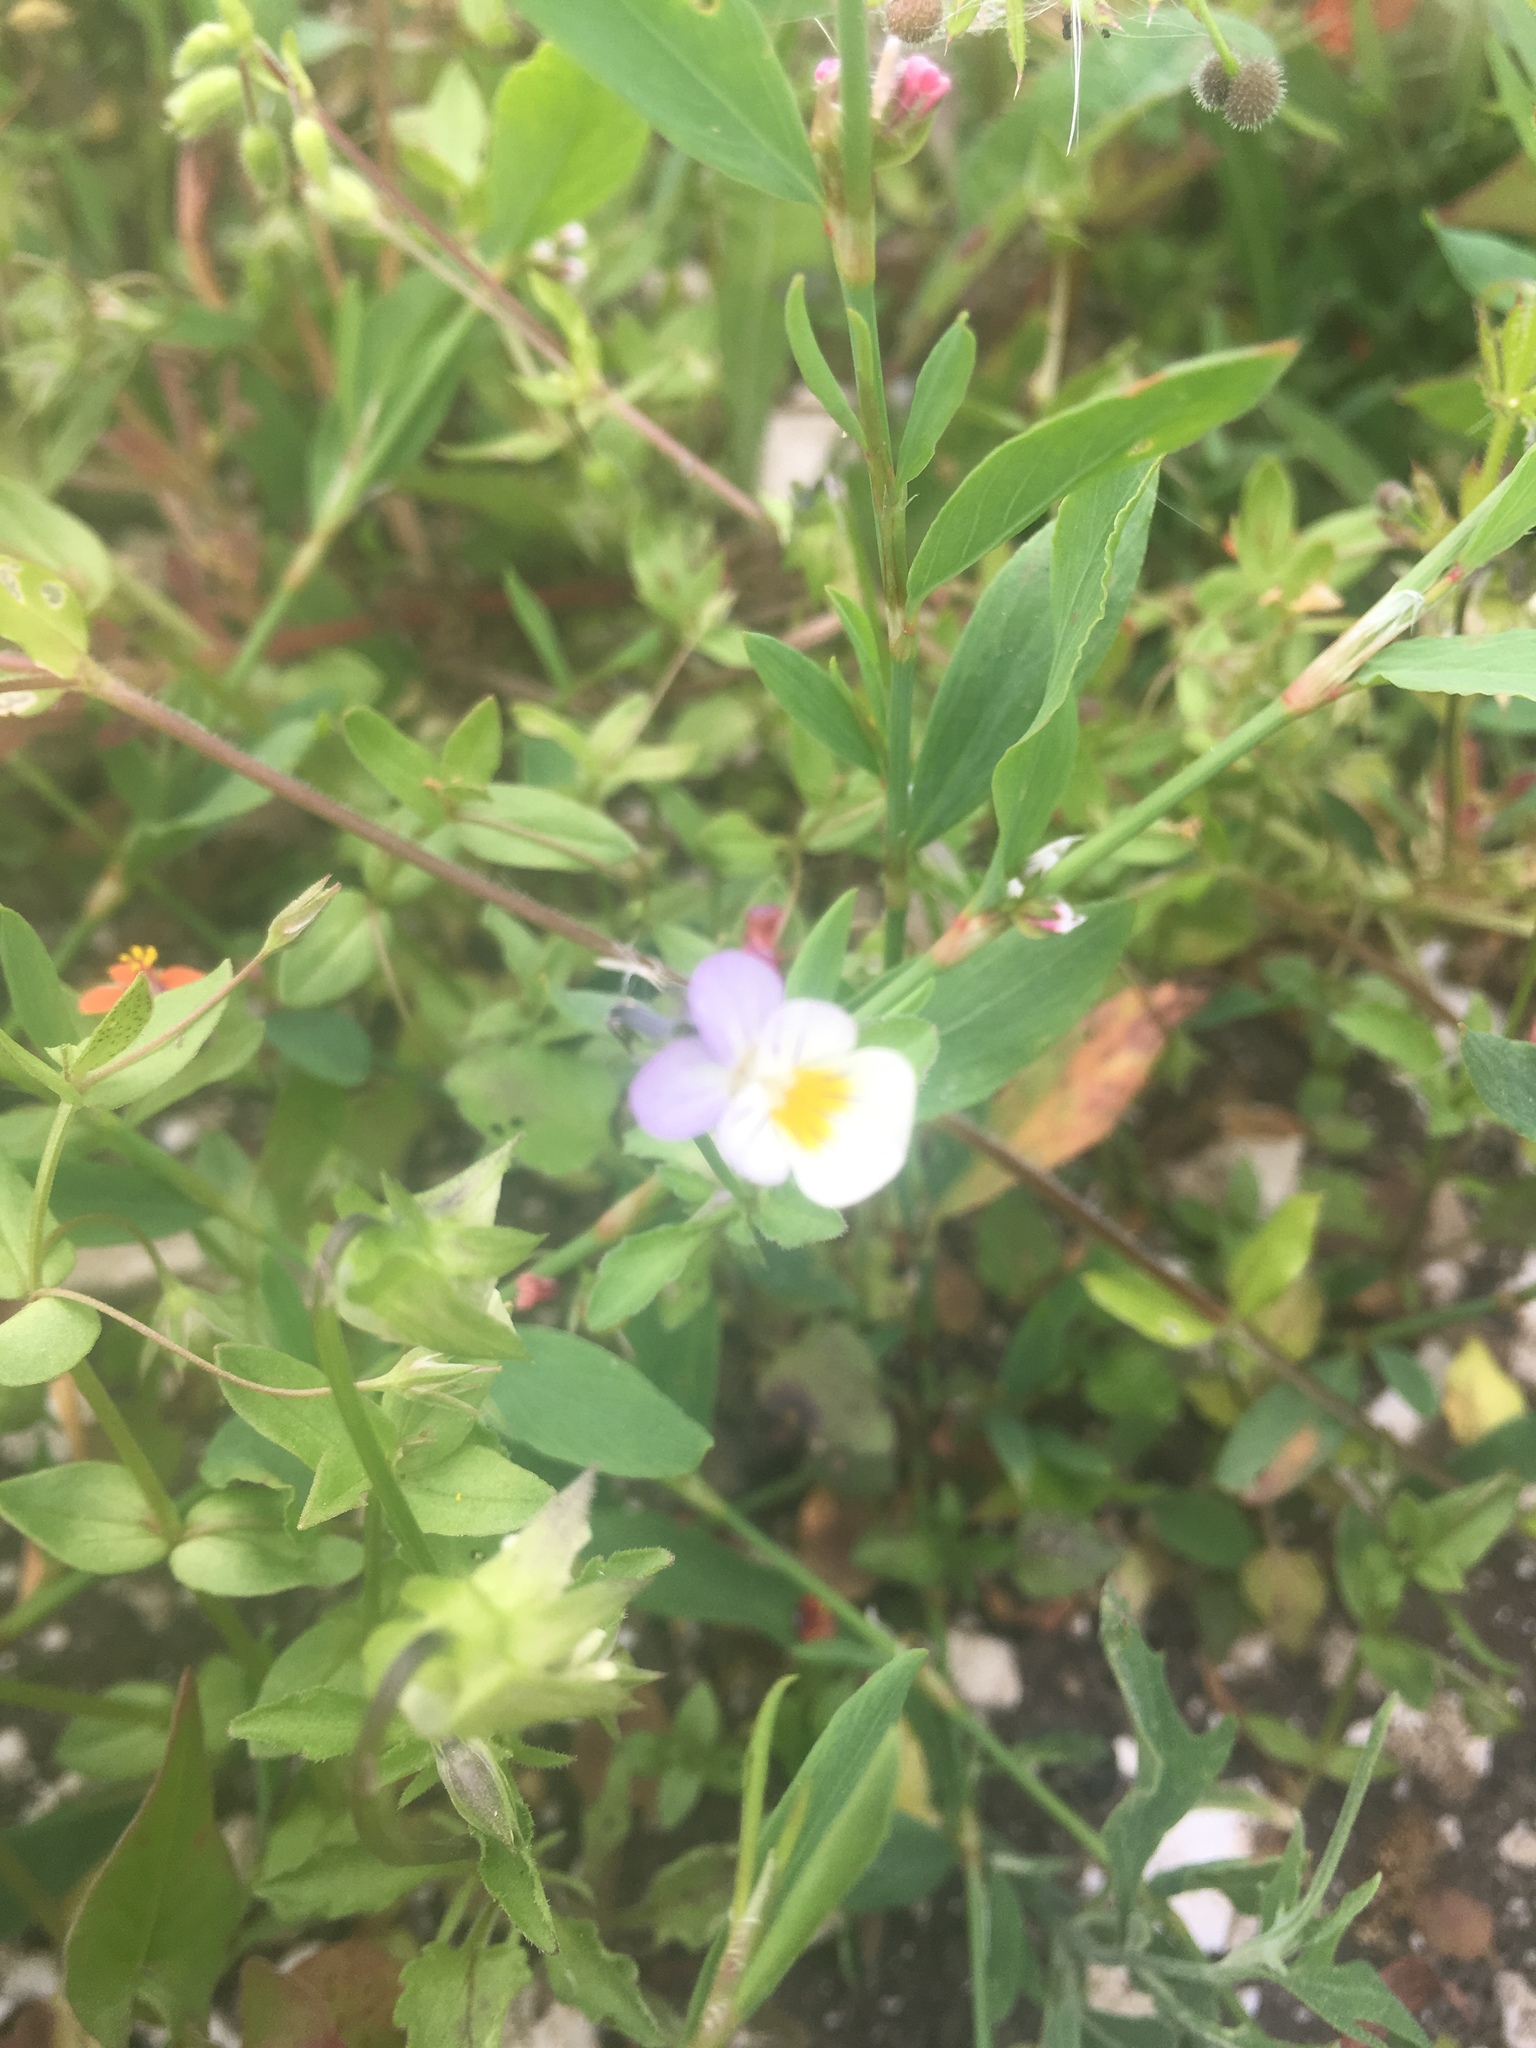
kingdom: Plantae
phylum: Tracheophyta
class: Magnoliopsida
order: Malpighiales
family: Violaceae
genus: Viola
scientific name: Viola arvensis
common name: Field pansy
